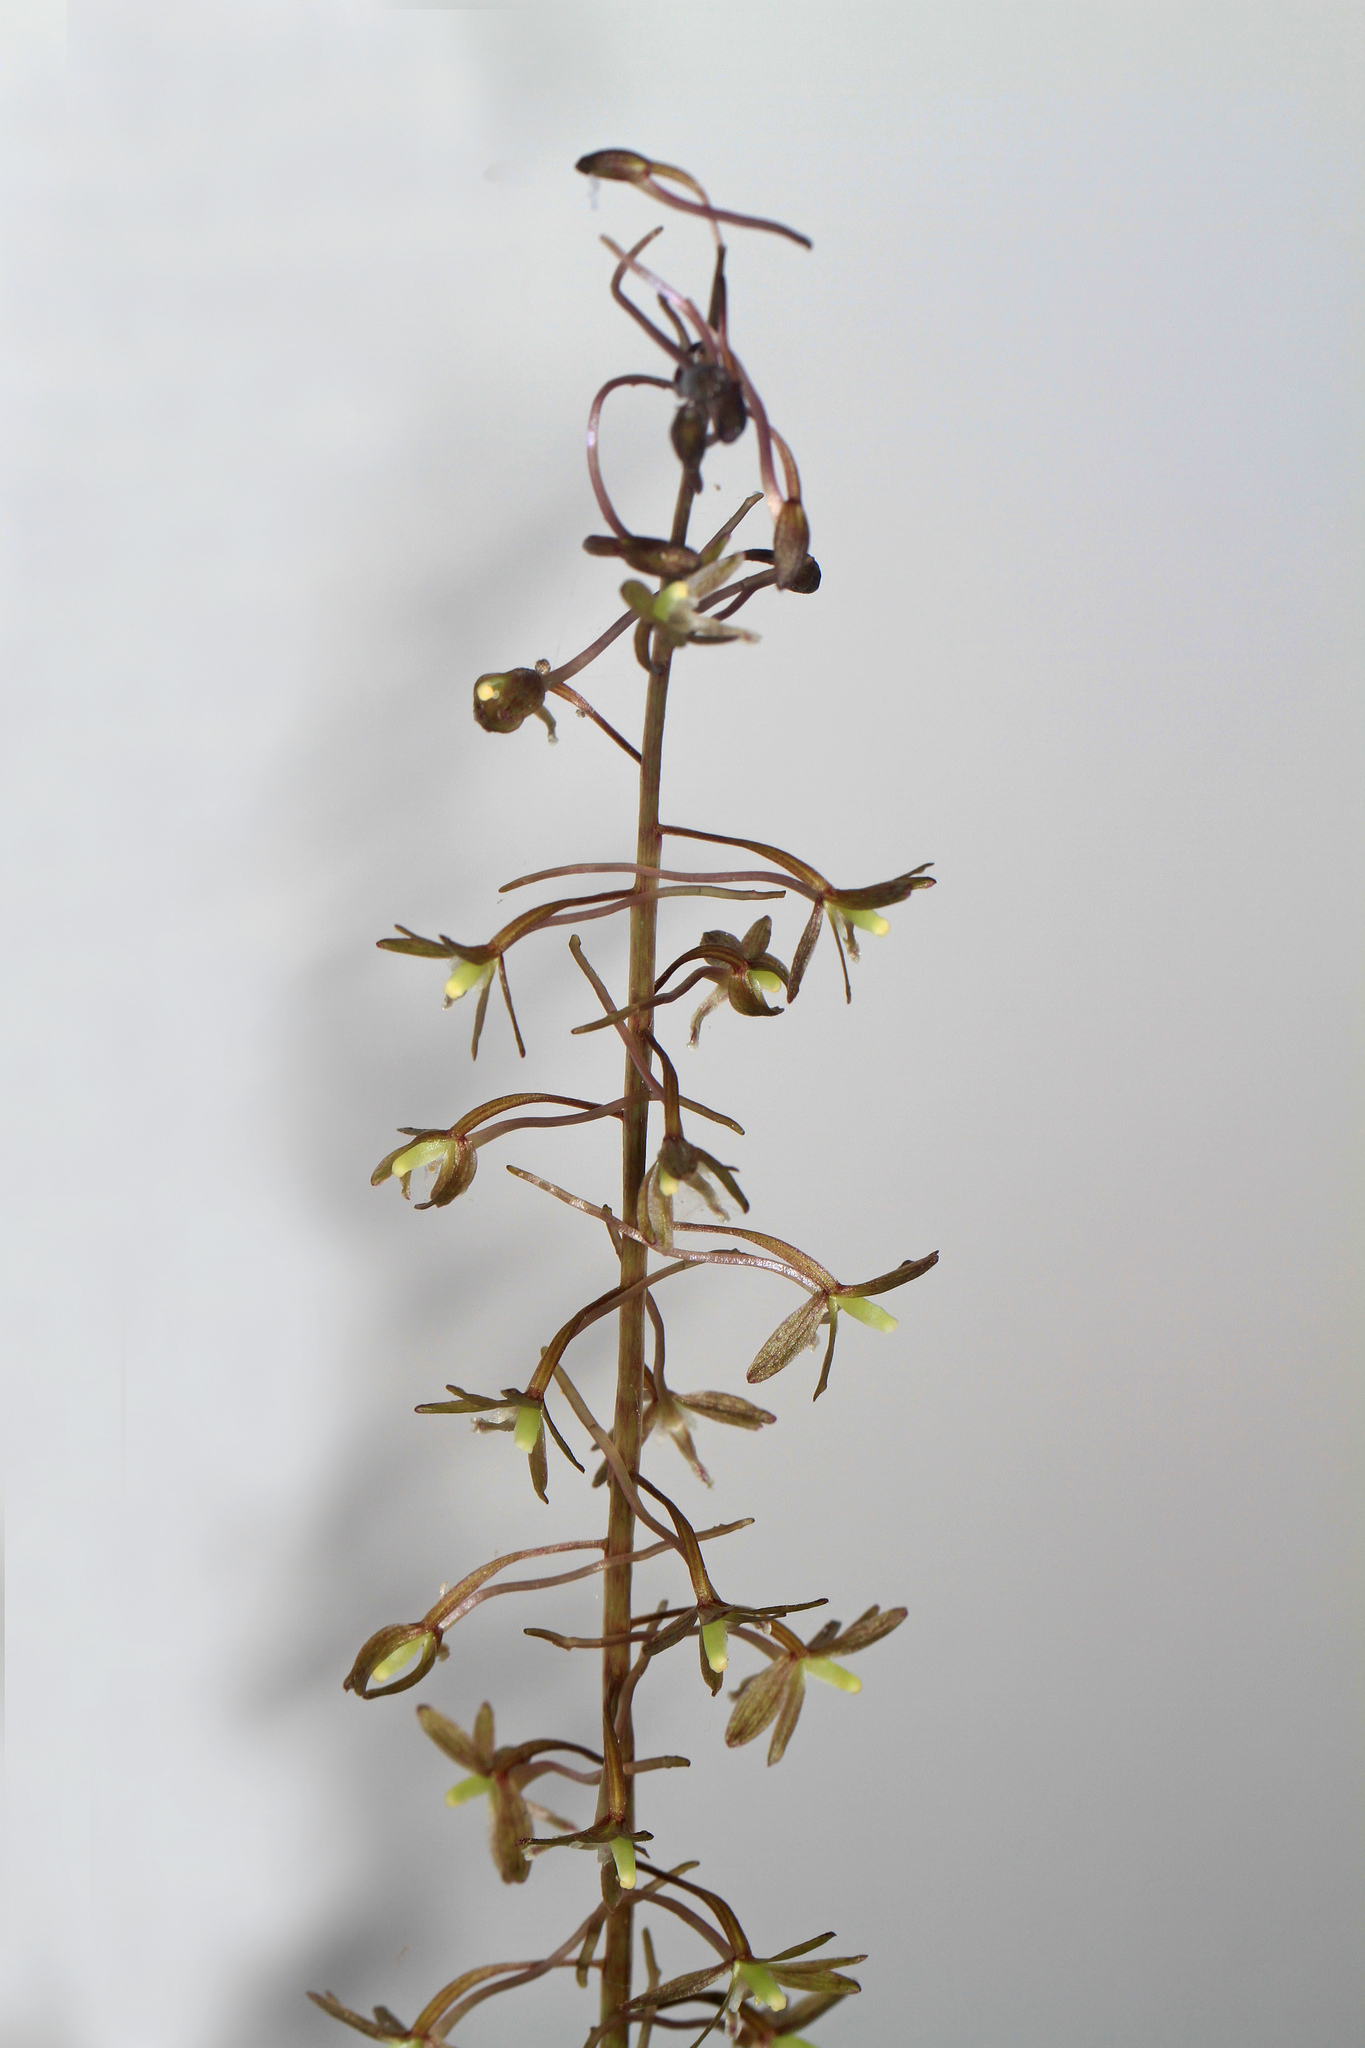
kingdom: Plantae
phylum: Tracheophyta
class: Liliopsida
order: Asparagales
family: Orchidaceae
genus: Tipularia
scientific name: Tipularia discolor
